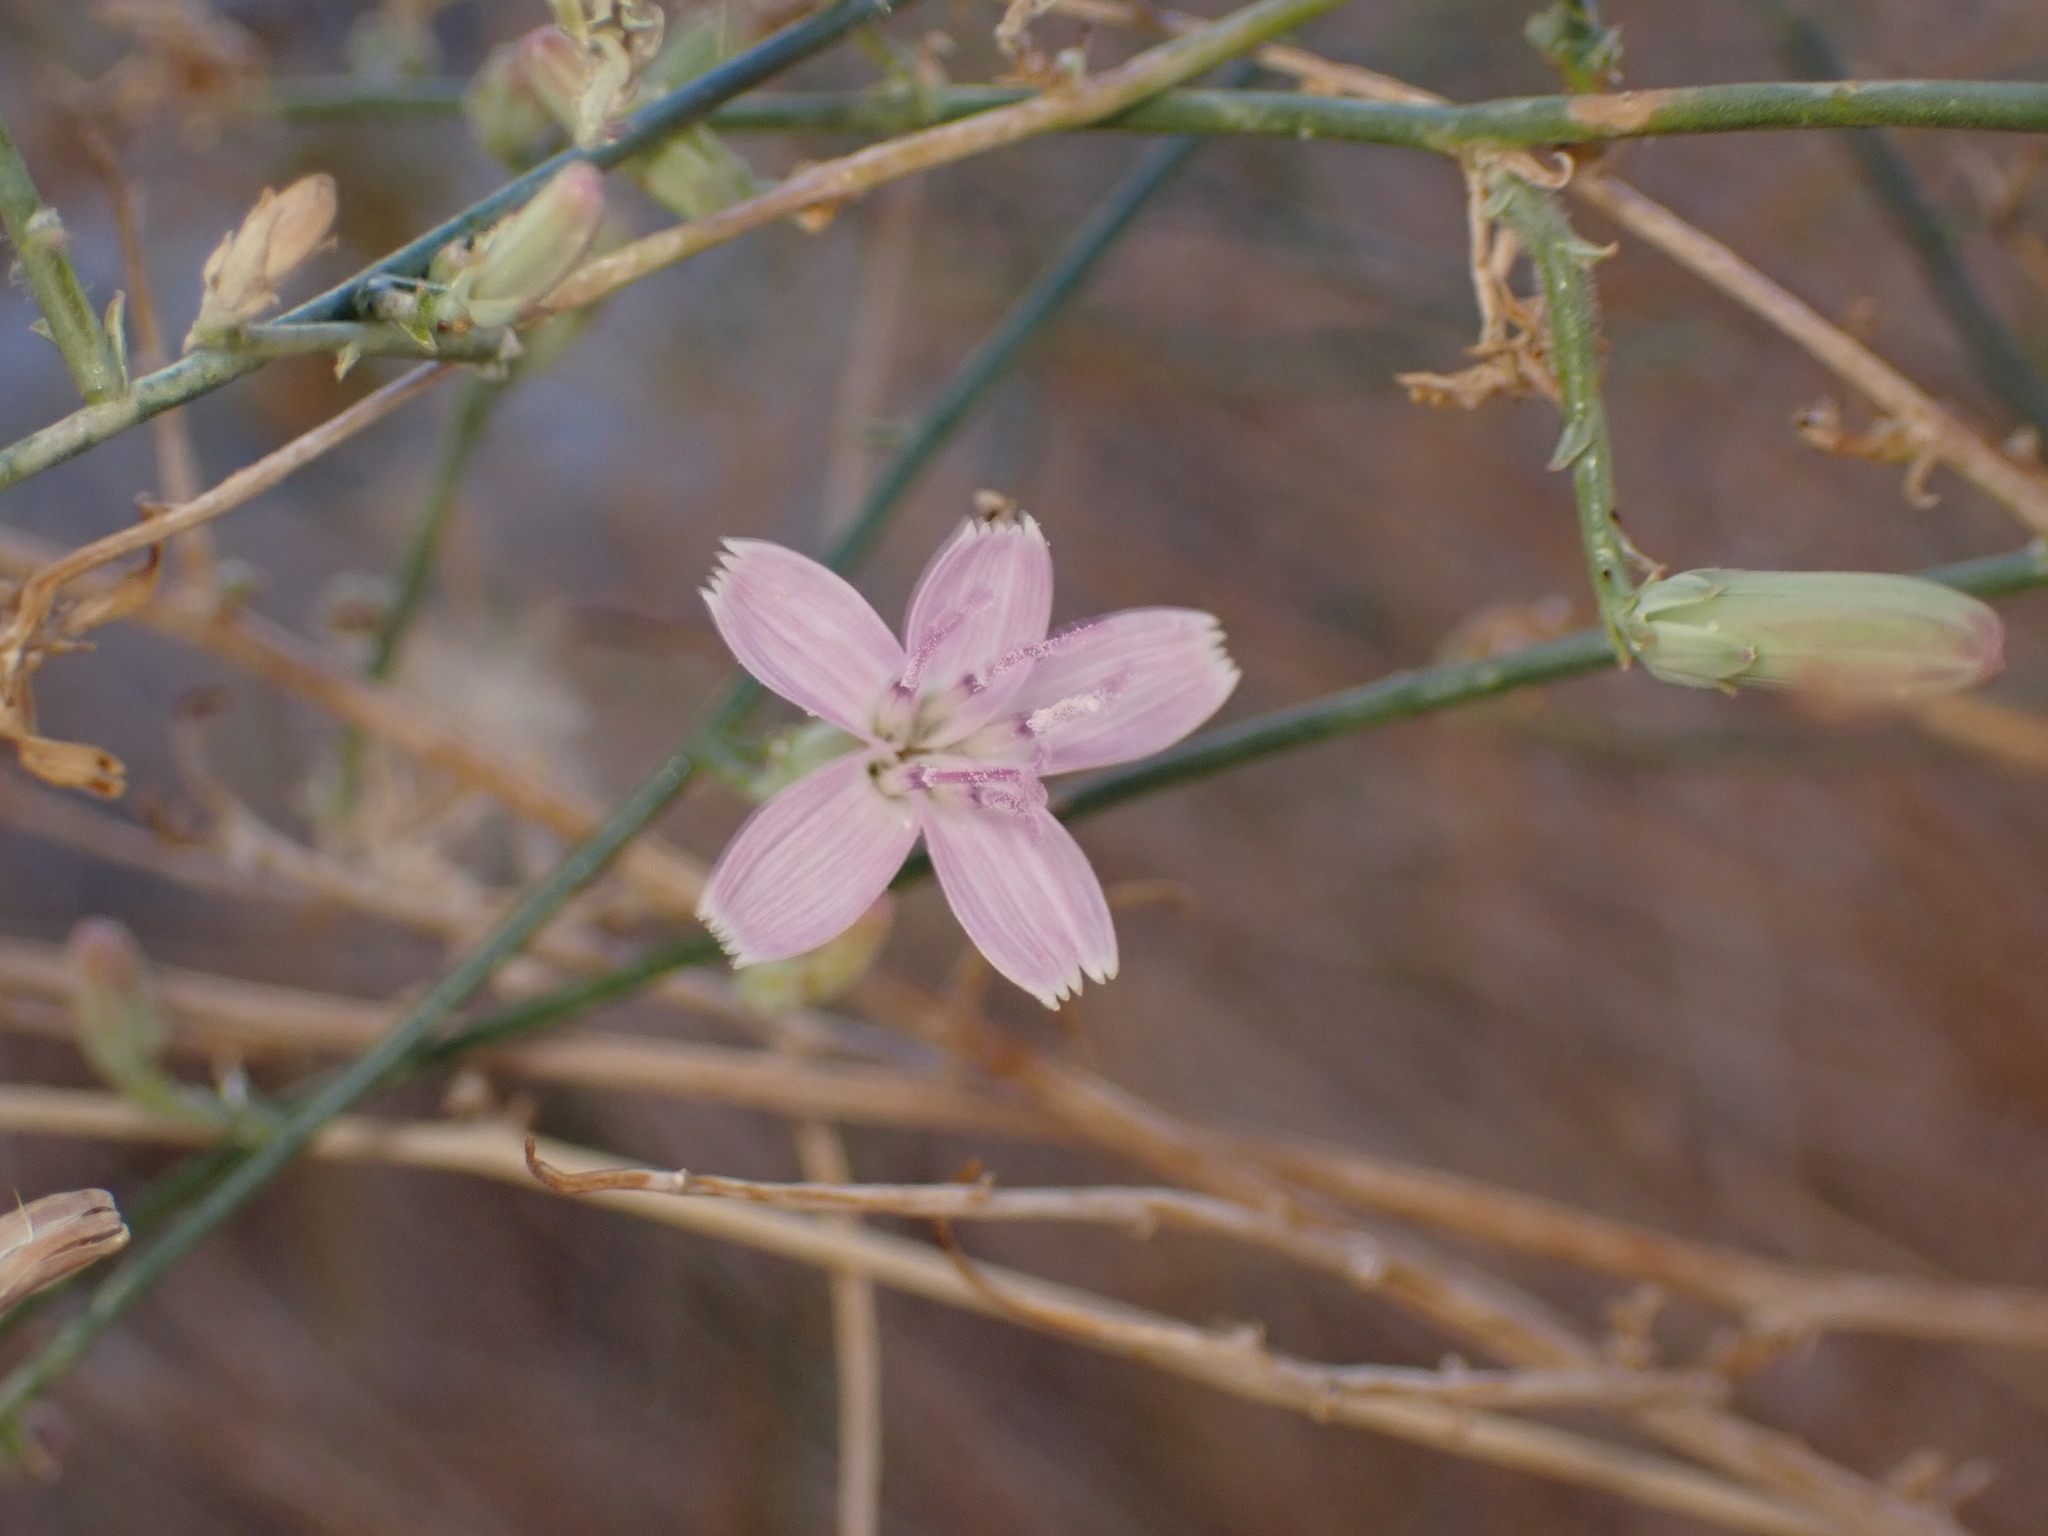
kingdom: Plantae
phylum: Tracheophyta
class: Magnoliopsida
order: Asterales
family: Asteraceae
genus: Stephanomeria
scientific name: Stephanomeria pauciflora
